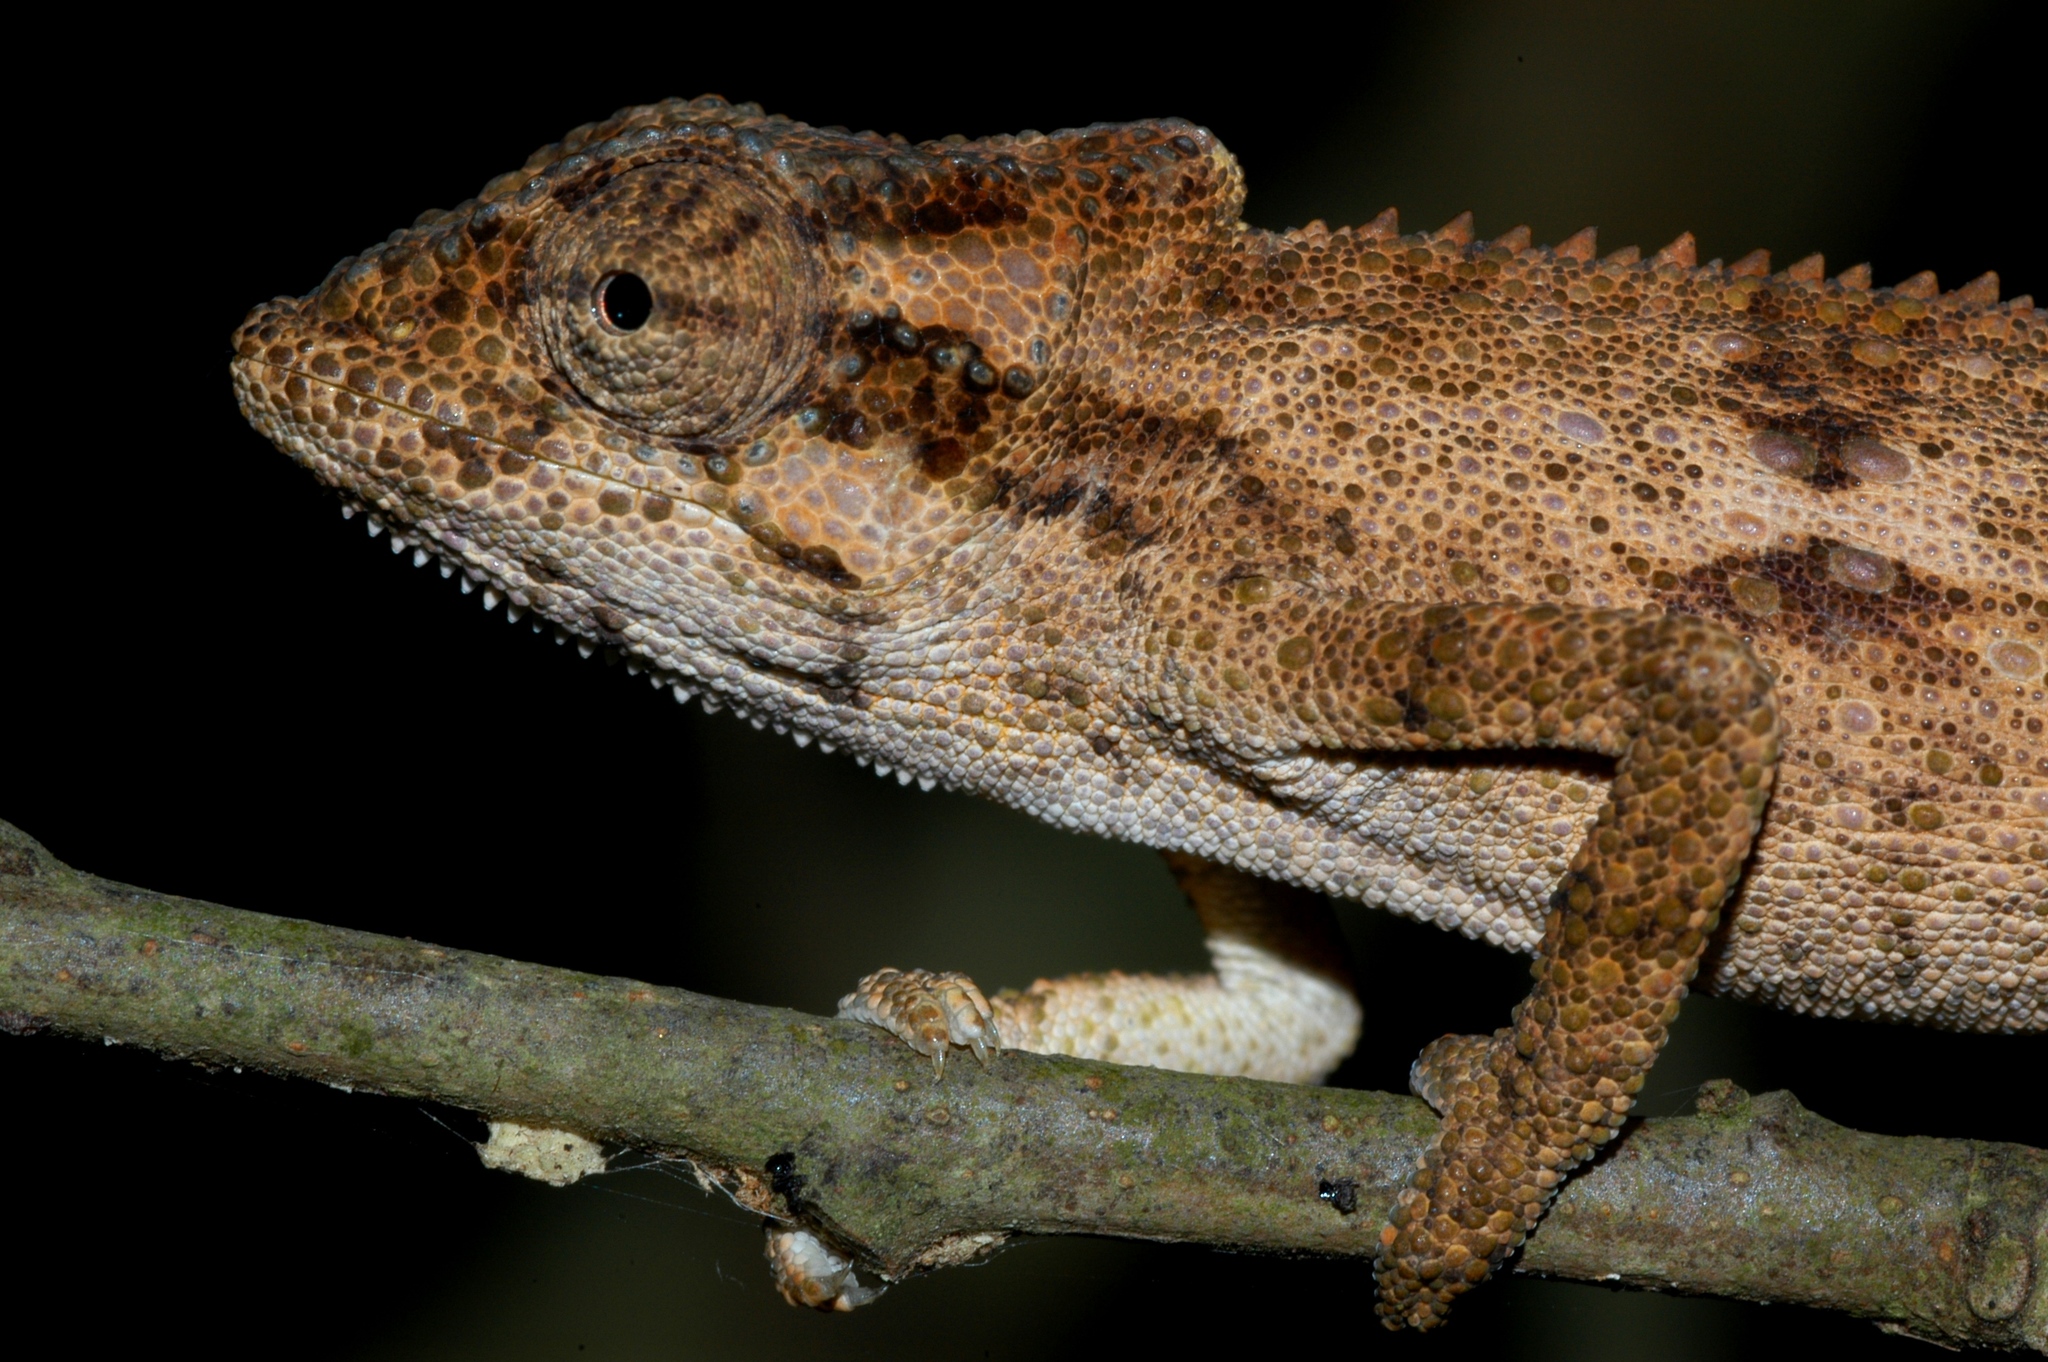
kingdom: Animalia
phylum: Chordata
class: Squamata
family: Chamaeleonidae
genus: Bradypodion
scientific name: Bradypodion kentanicum
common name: Kentani dwarf chameleon
